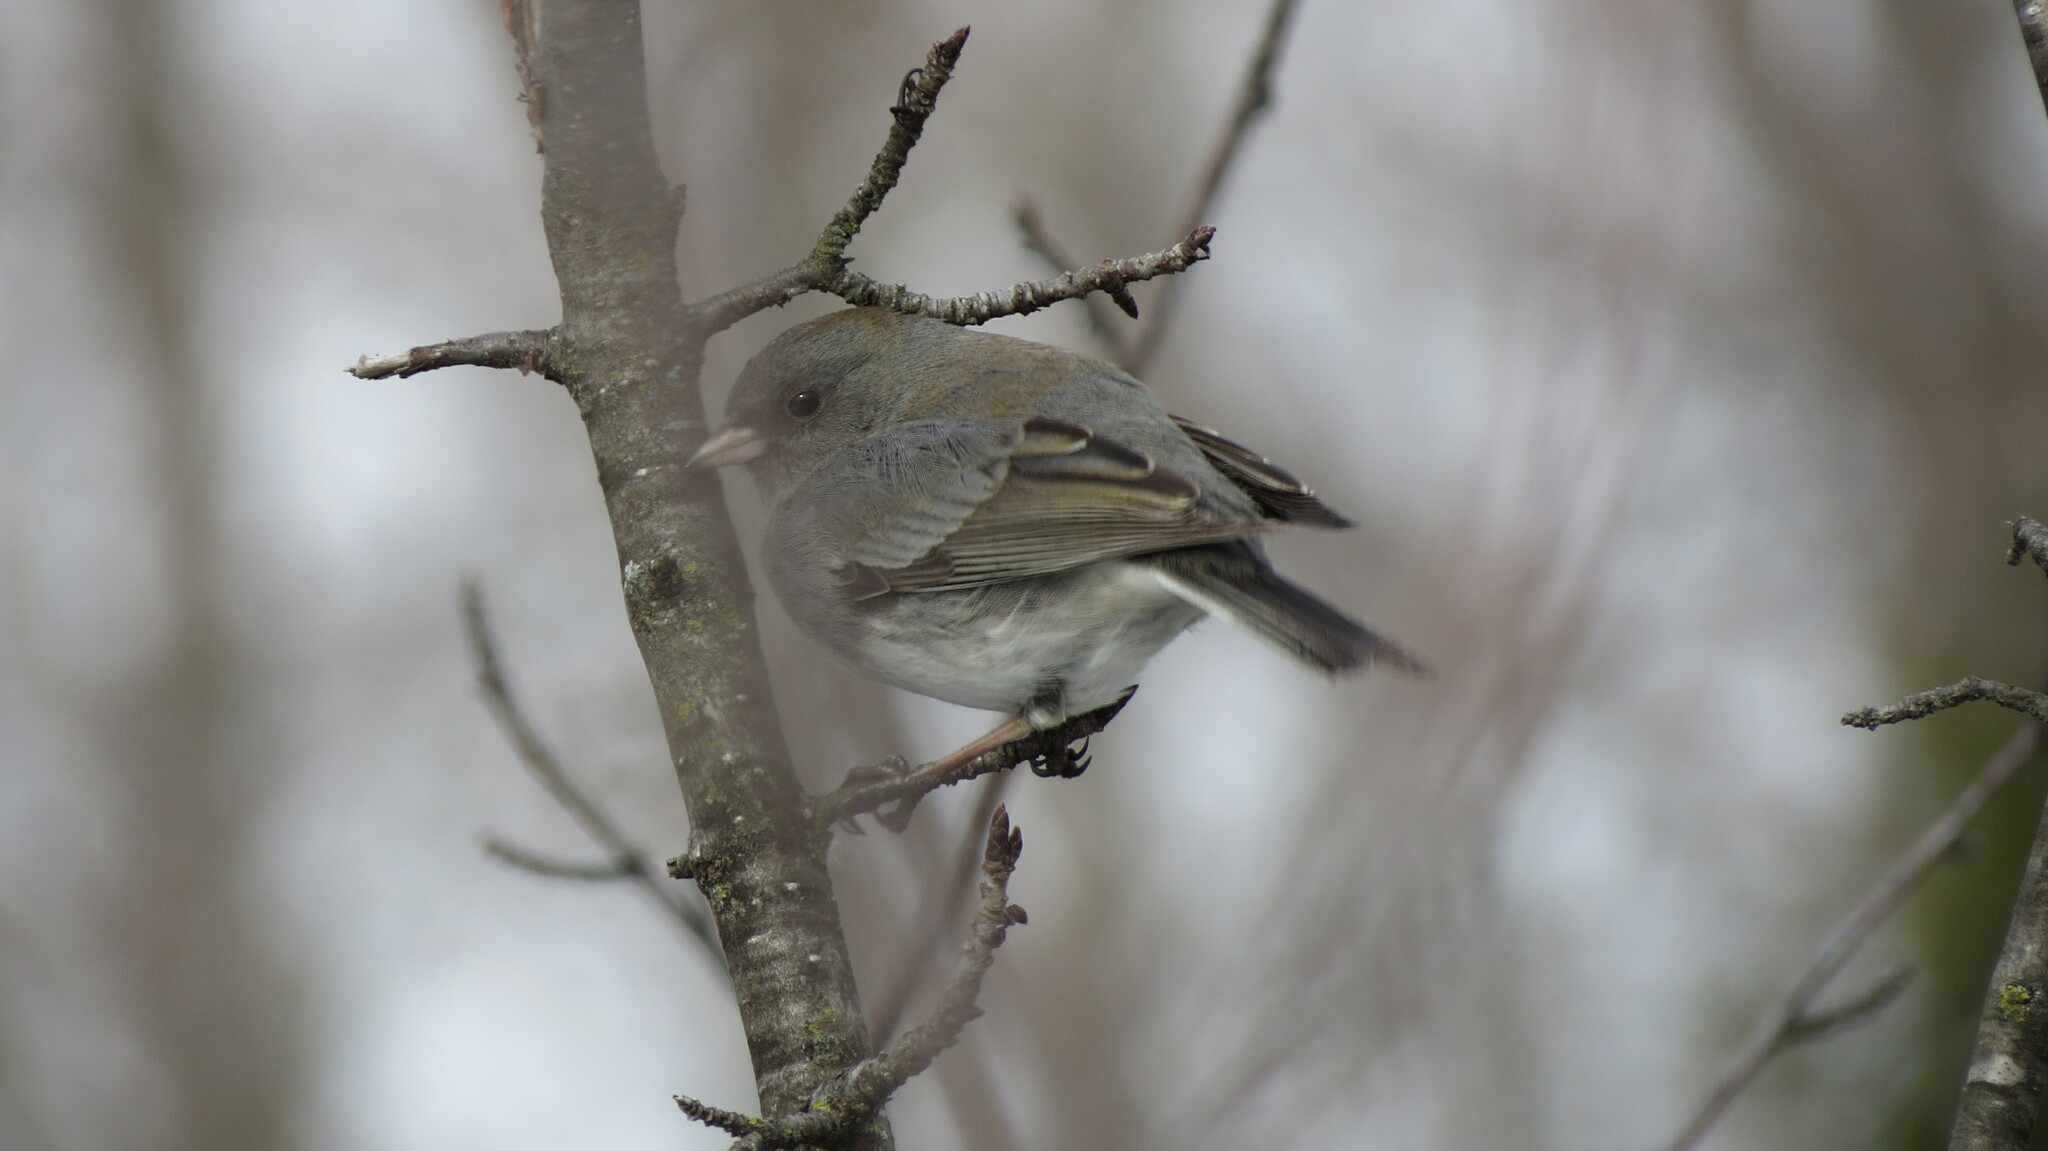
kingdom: Animalia
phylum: Chordata
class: Aves
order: Passeriformes
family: Passerellidae
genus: Junco
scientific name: Junco hyemalis
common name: Dark-eyed junco
